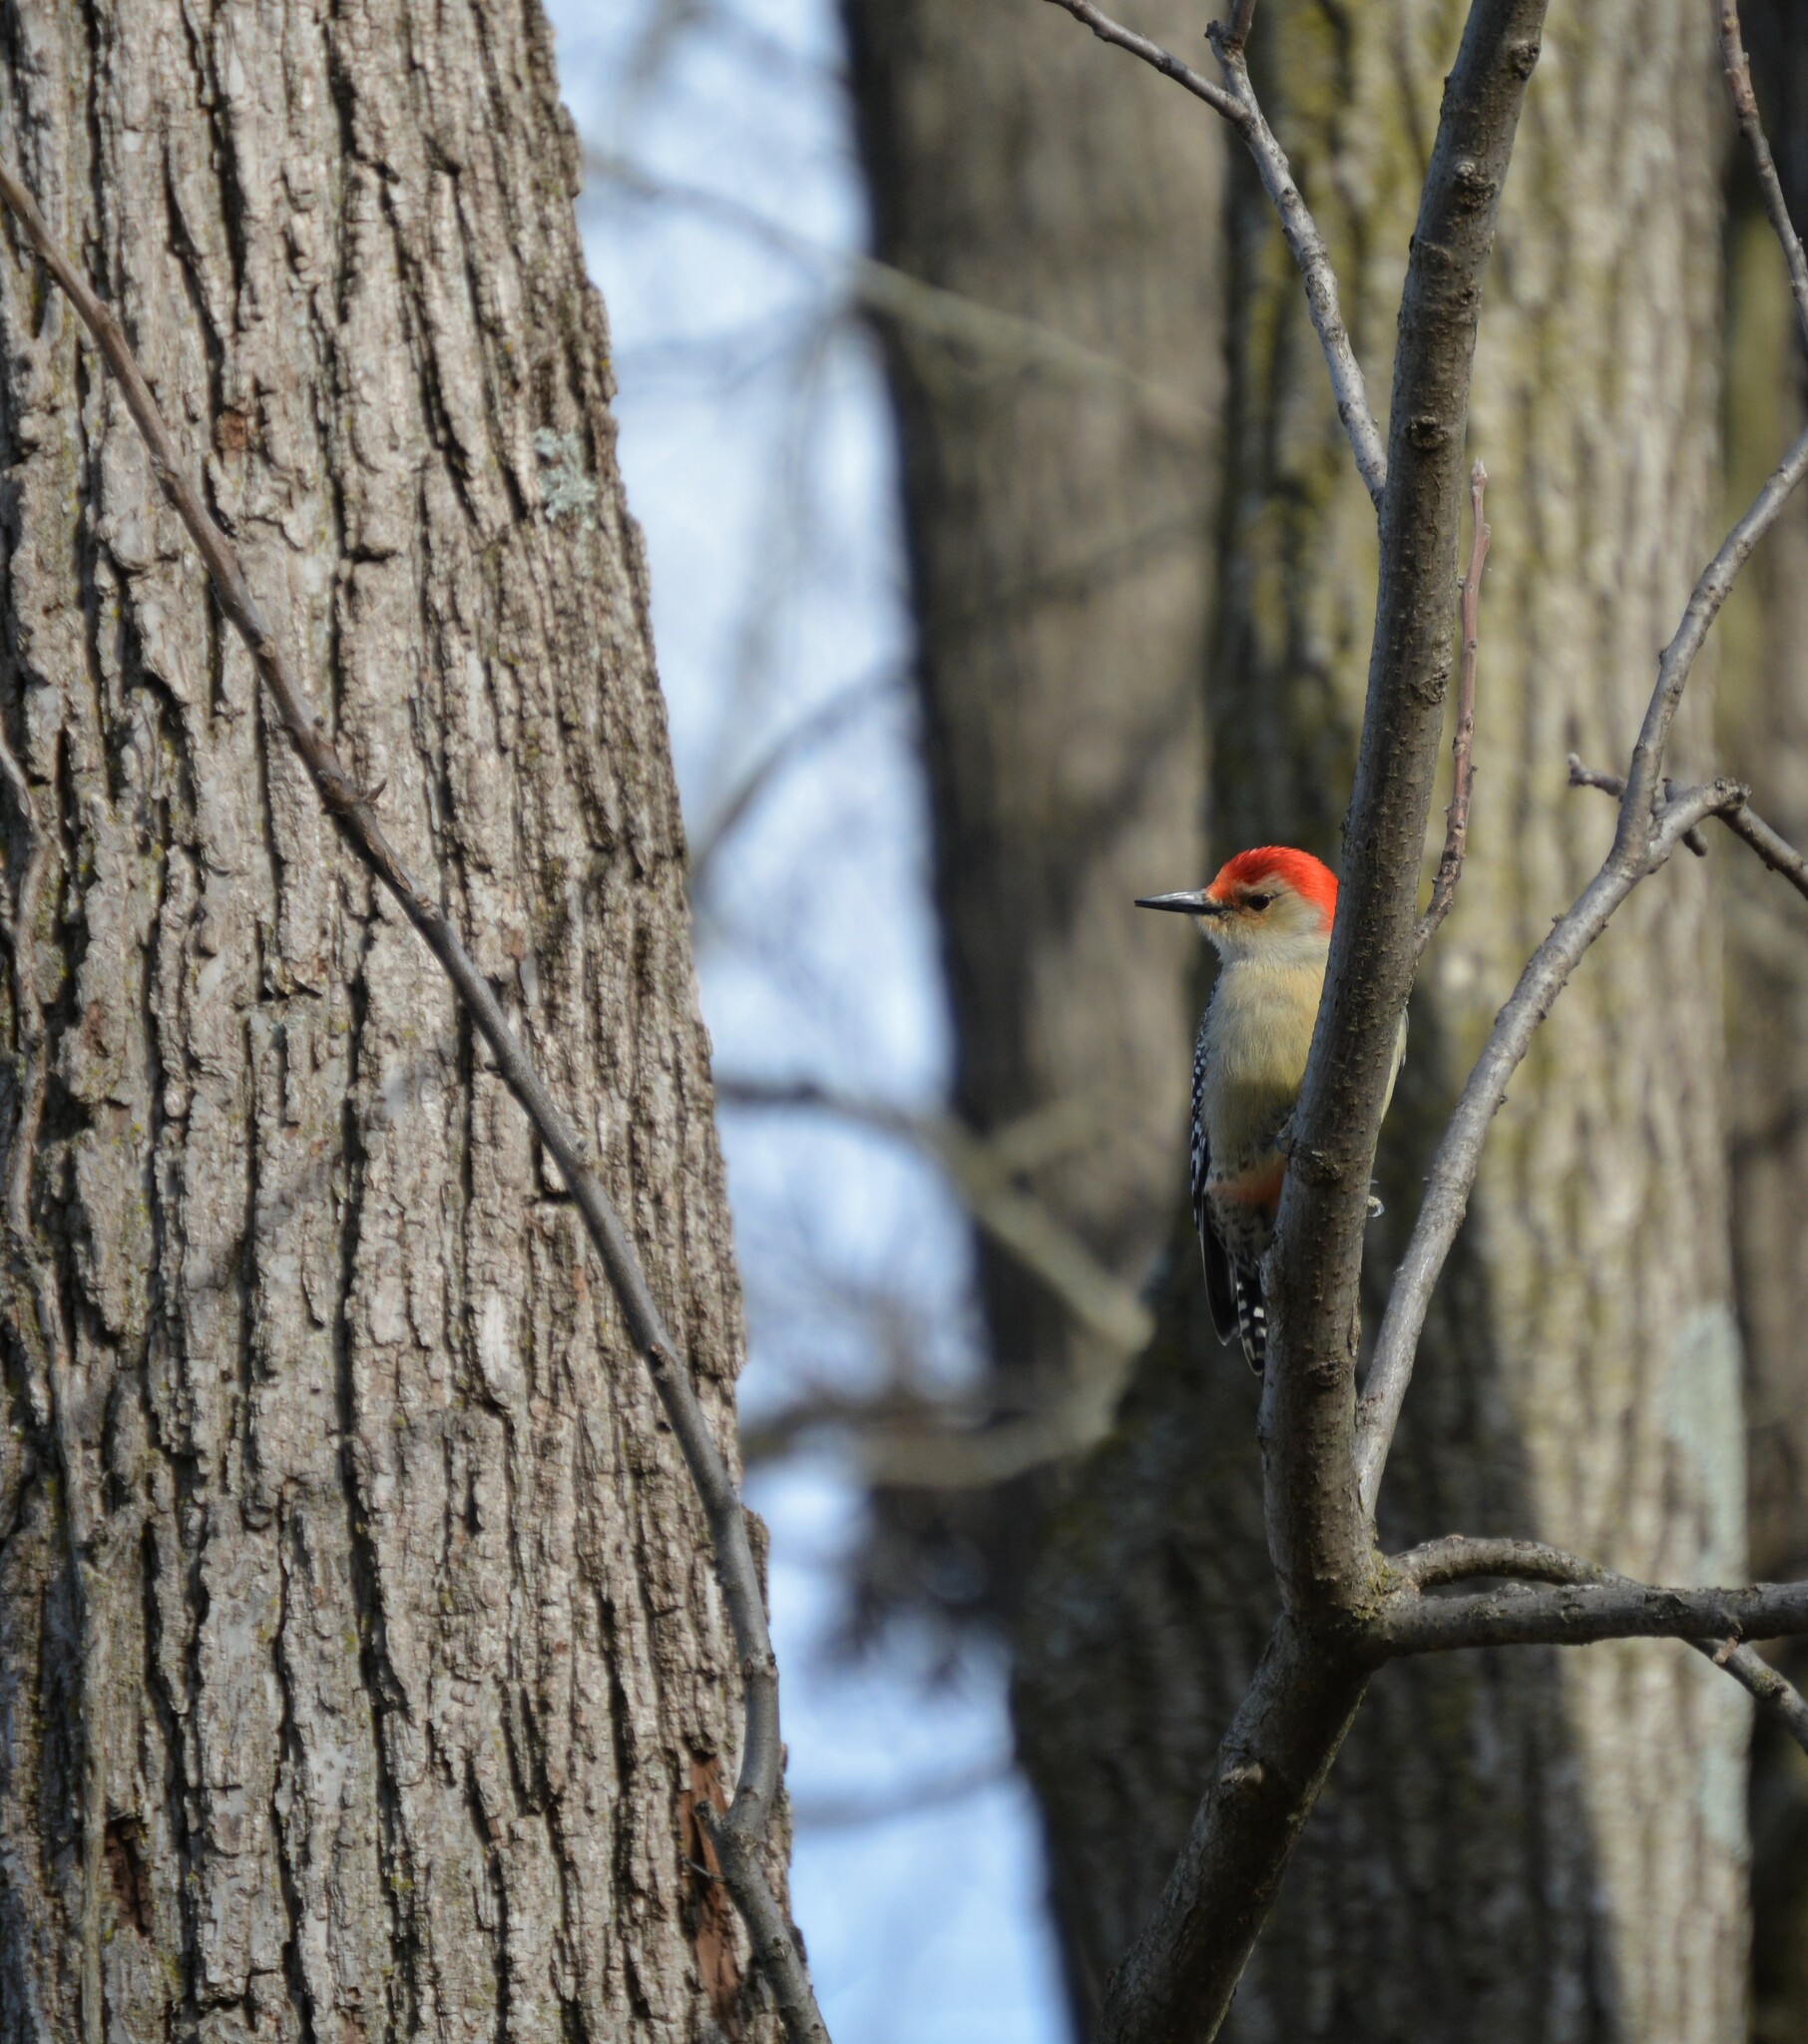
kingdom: Animalia
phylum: Chordata
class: Aves
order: Piciformes
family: Picidae
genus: Melanerpes
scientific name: Melanerpes carolinus
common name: Red-bellied woodpecker
